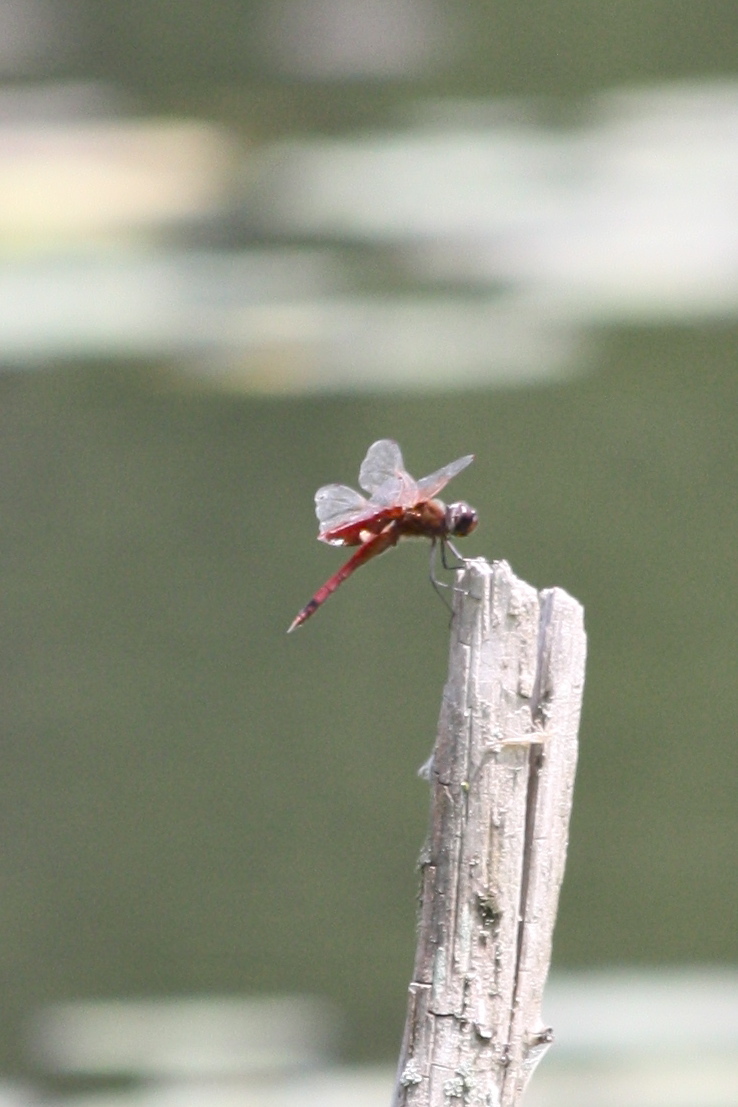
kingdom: Animalia
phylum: Arthropoda
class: Insecta
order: Odonata
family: Libellulidae
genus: Tramea
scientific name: Tramea carolina
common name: Carolina saddlebags
